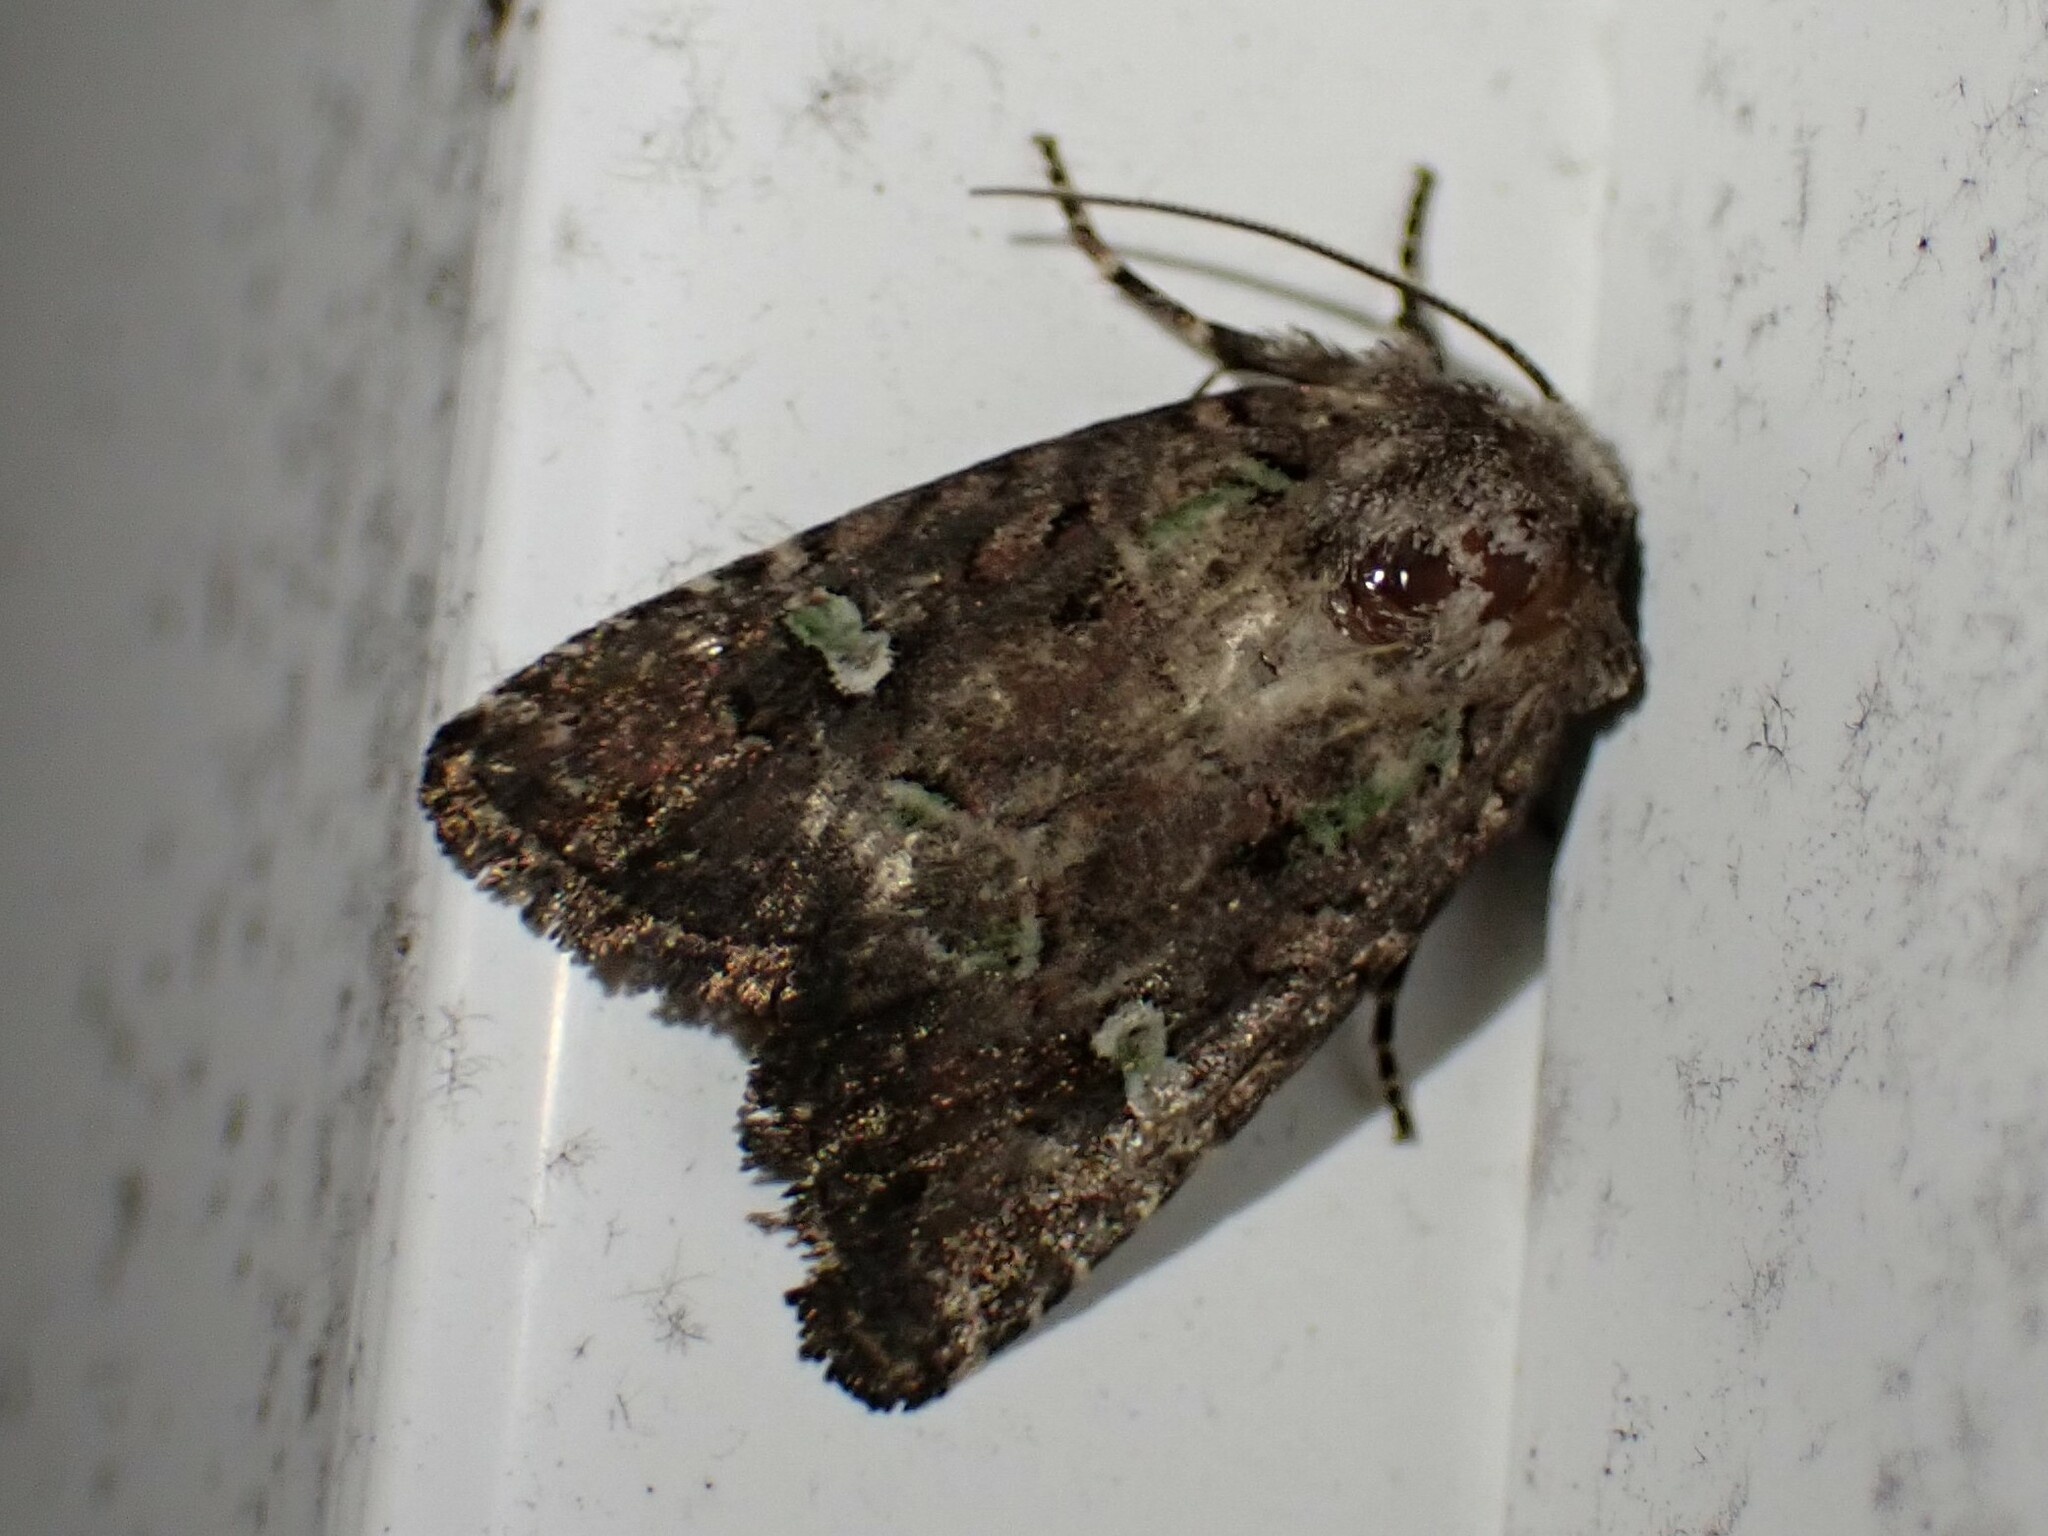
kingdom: Animalia
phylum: Arthropoda
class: Insecta
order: Lepidoptera
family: Noctuidae
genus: Lacinipolia
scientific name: Lacinipolia renigera
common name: Kidney-spotted minor
